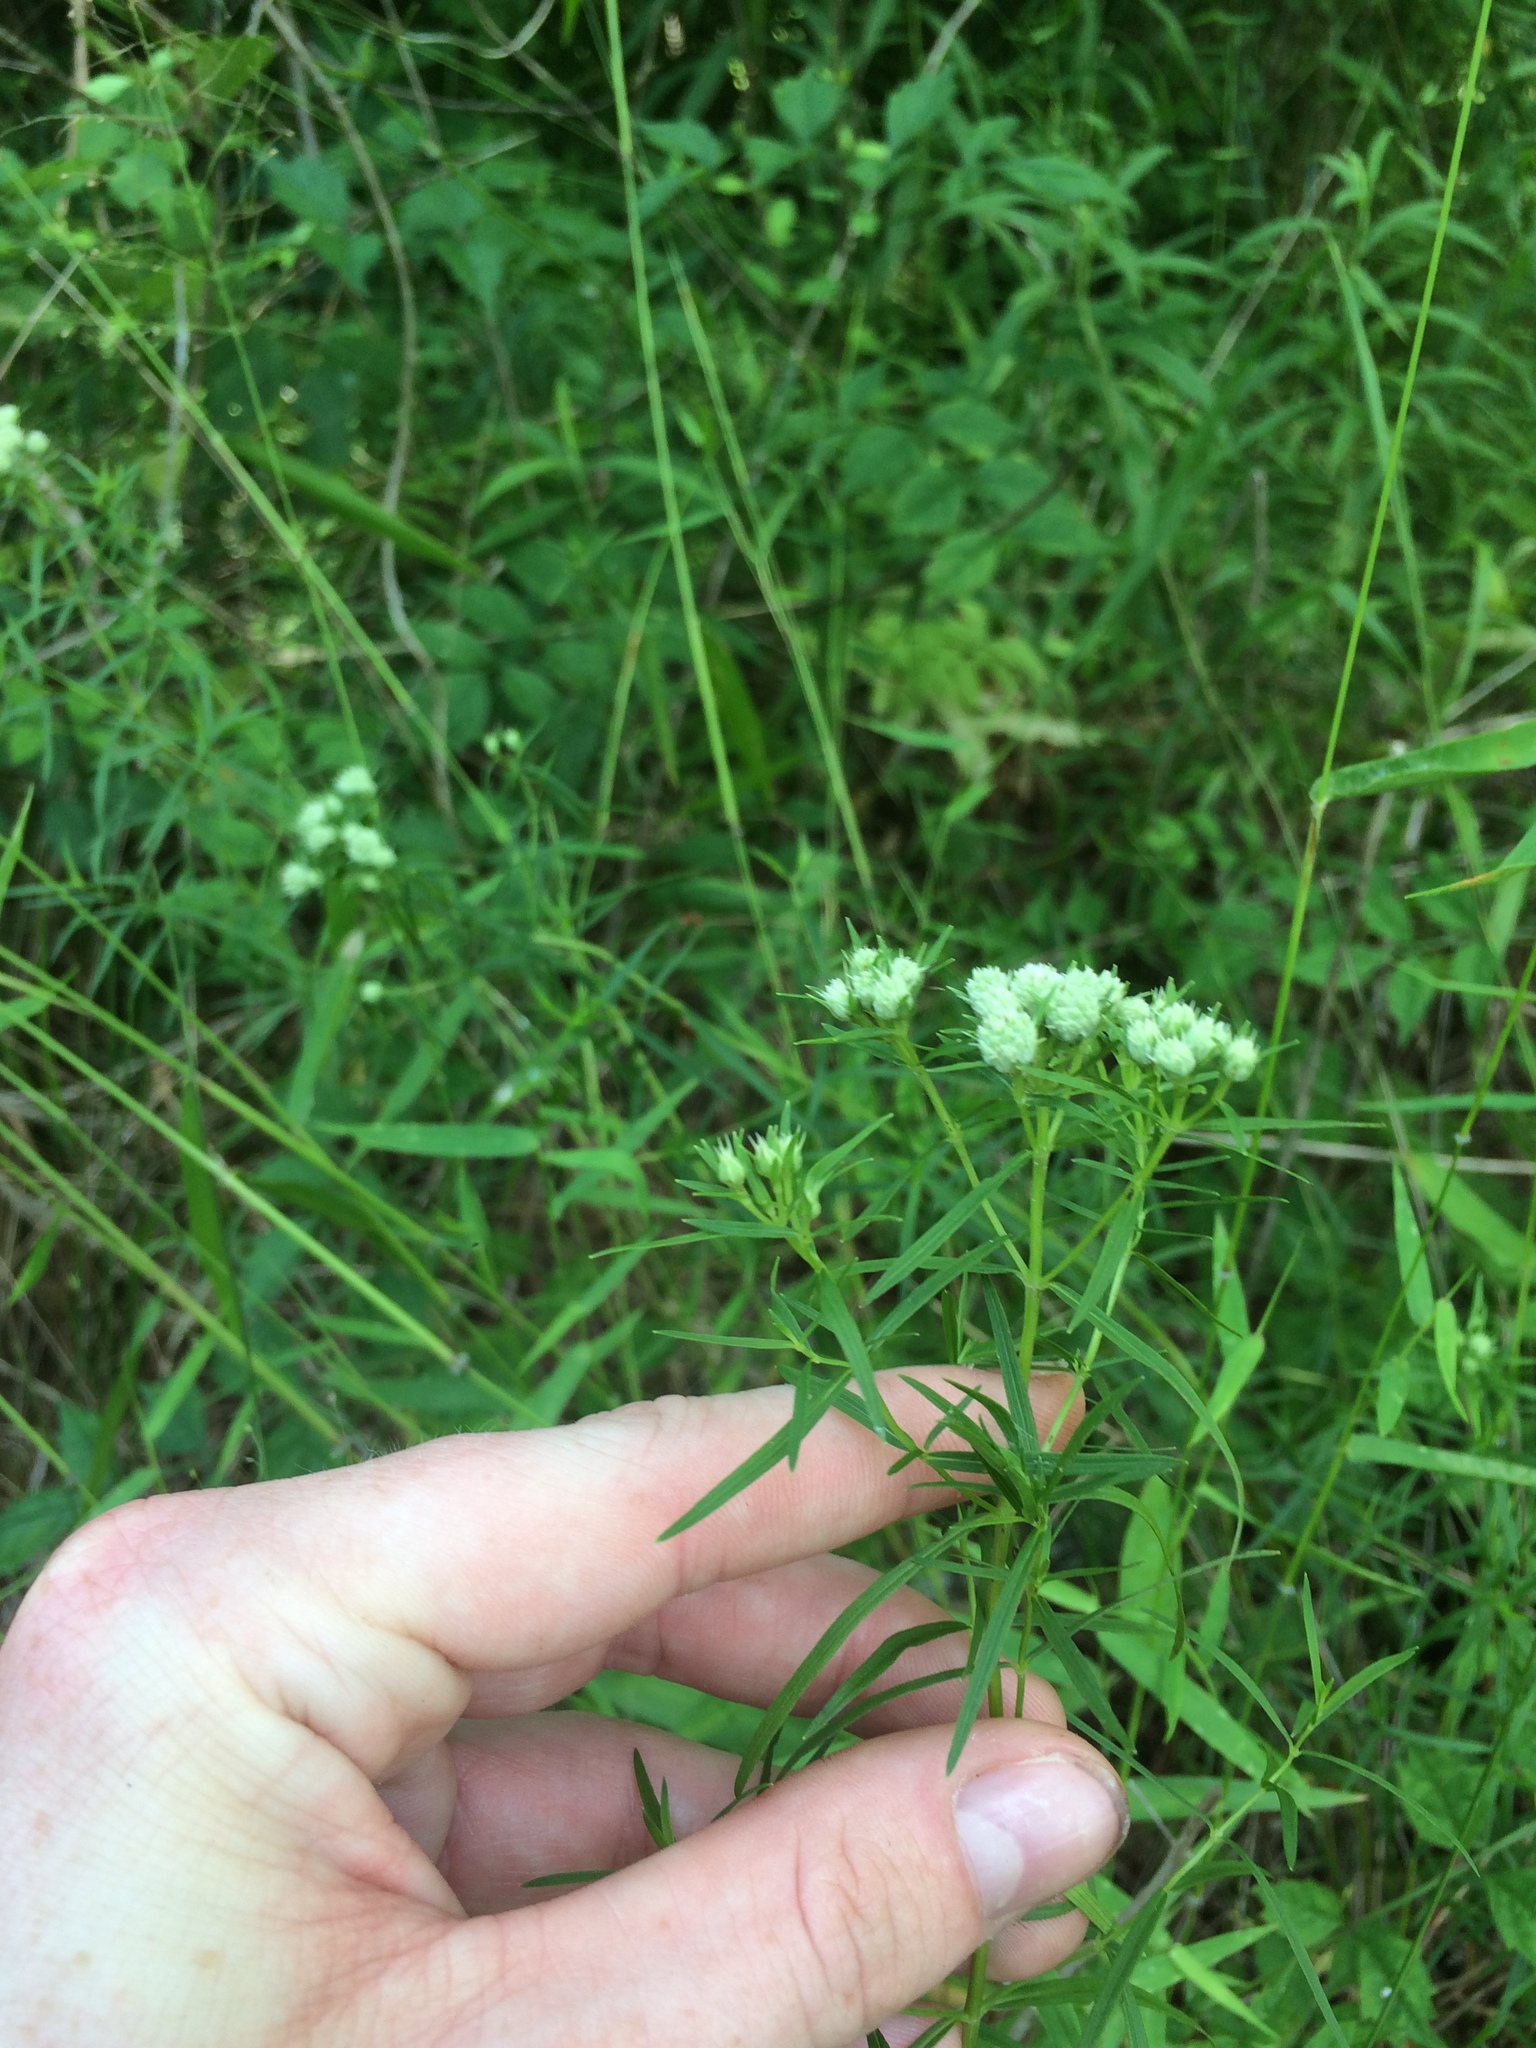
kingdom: Plantae
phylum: Tracheophyta
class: Magnoliopsida
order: Lamiales
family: Lamiaceae
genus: Pycnanthemum
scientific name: Pycnanthemum tenuifolium
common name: Narrow-leaf mountain-mint
